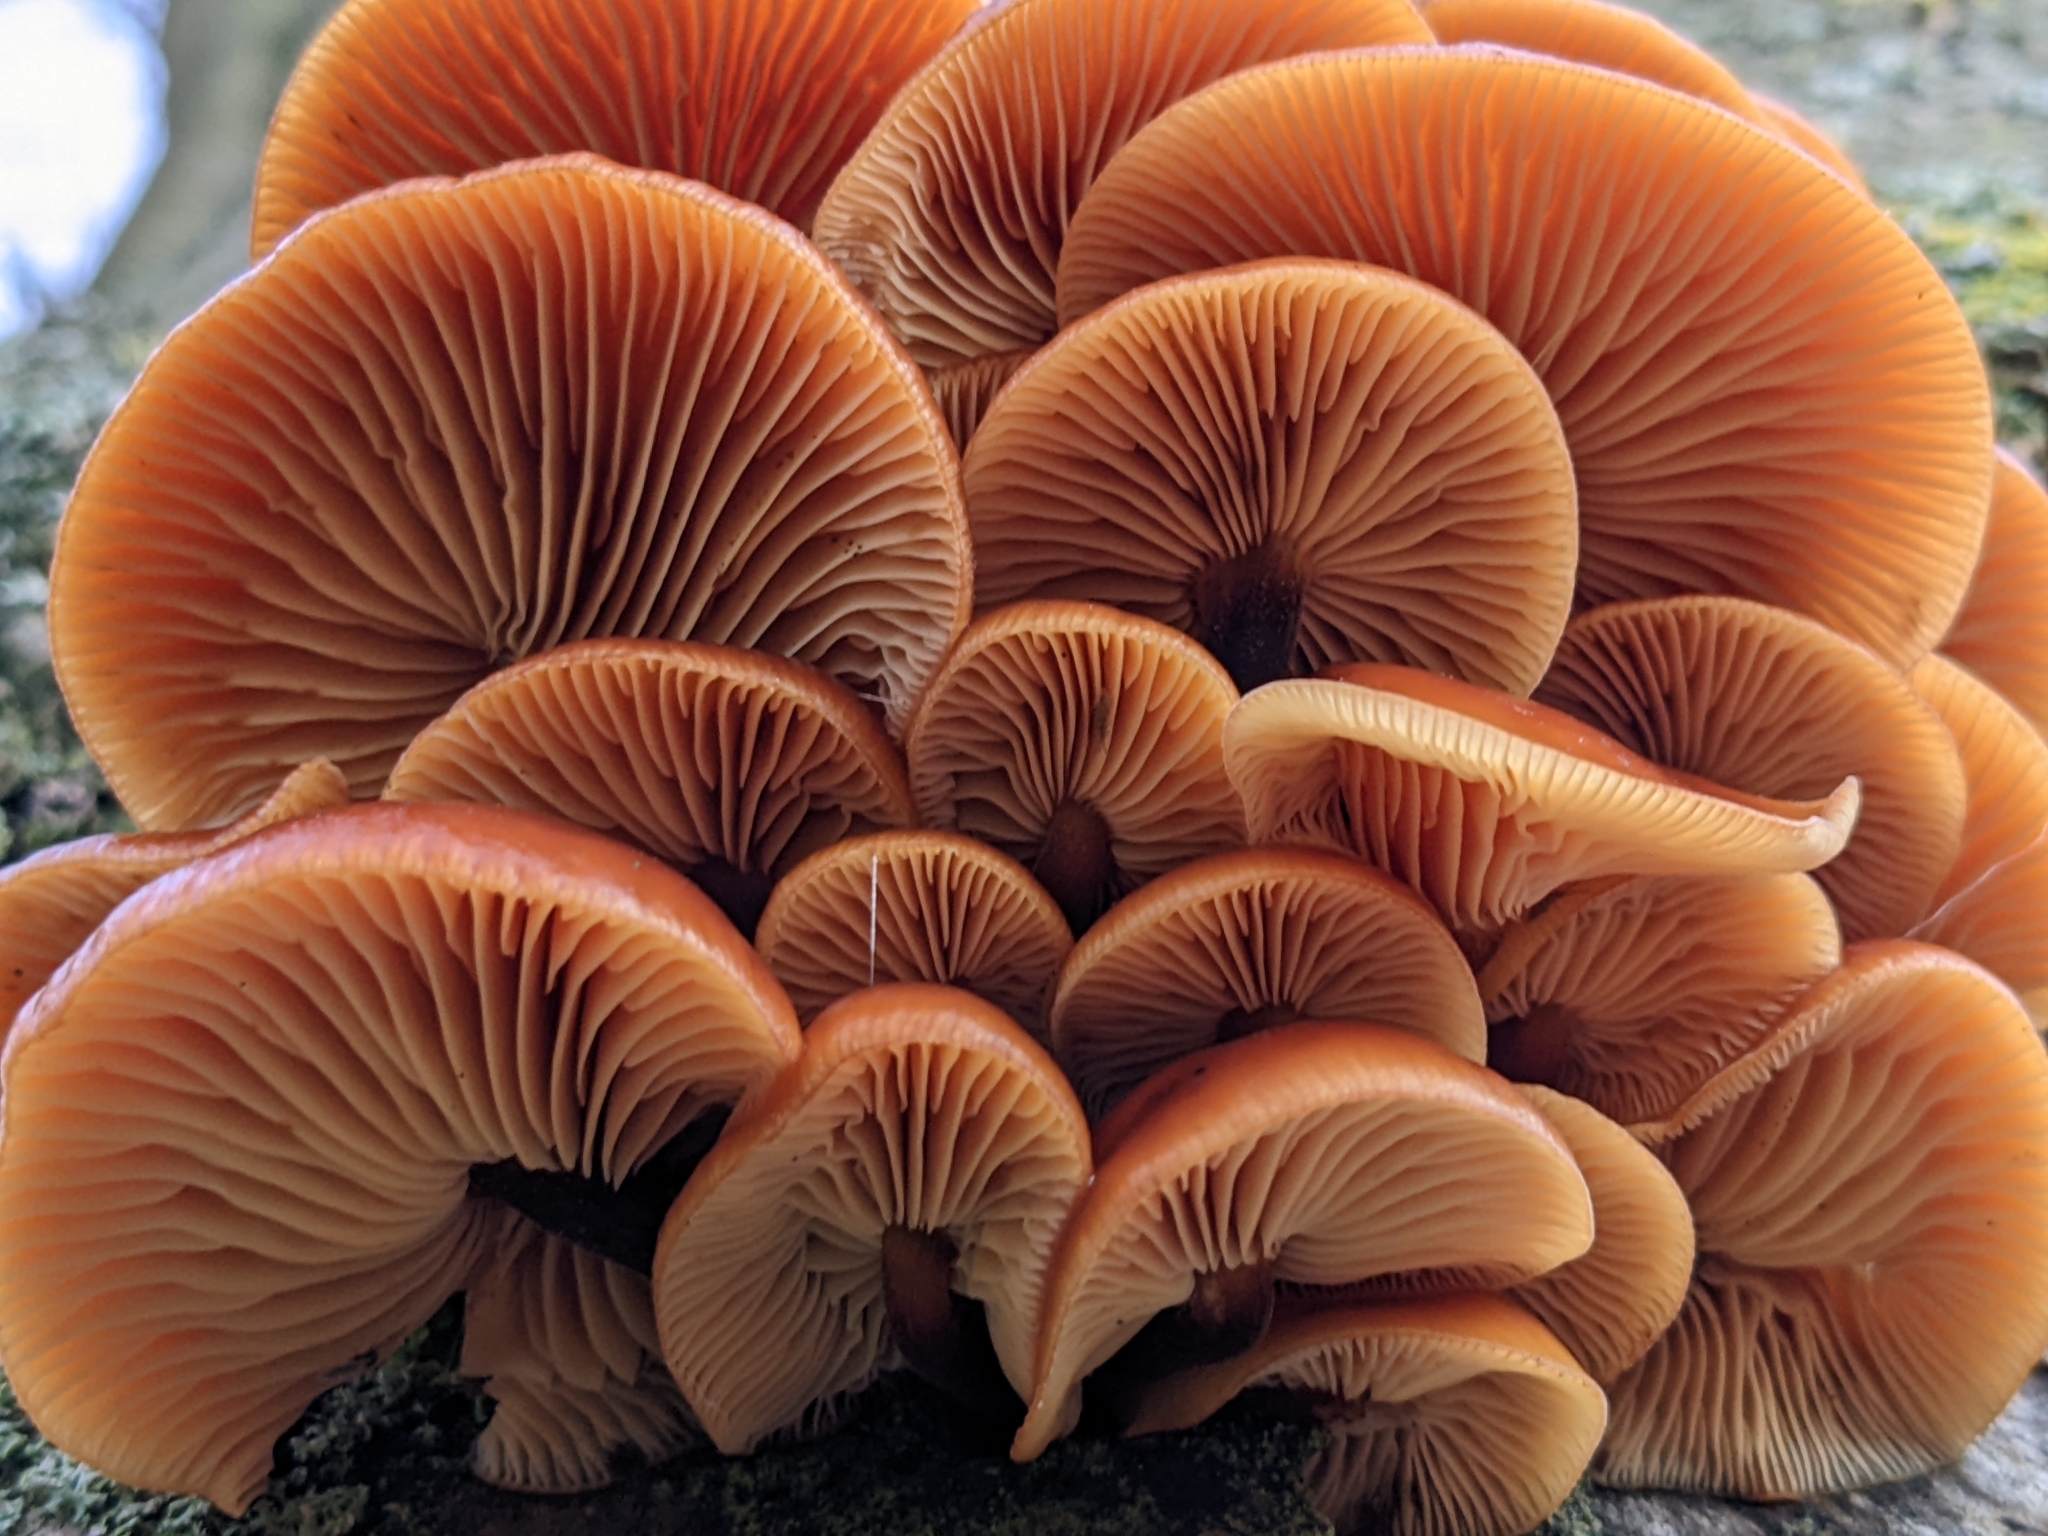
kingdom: Fungi
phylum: Basidiomycota
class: Agaricomycetes
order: Agaricales
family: Physalacriaceae
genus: Flammulina
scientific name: Flammulina
